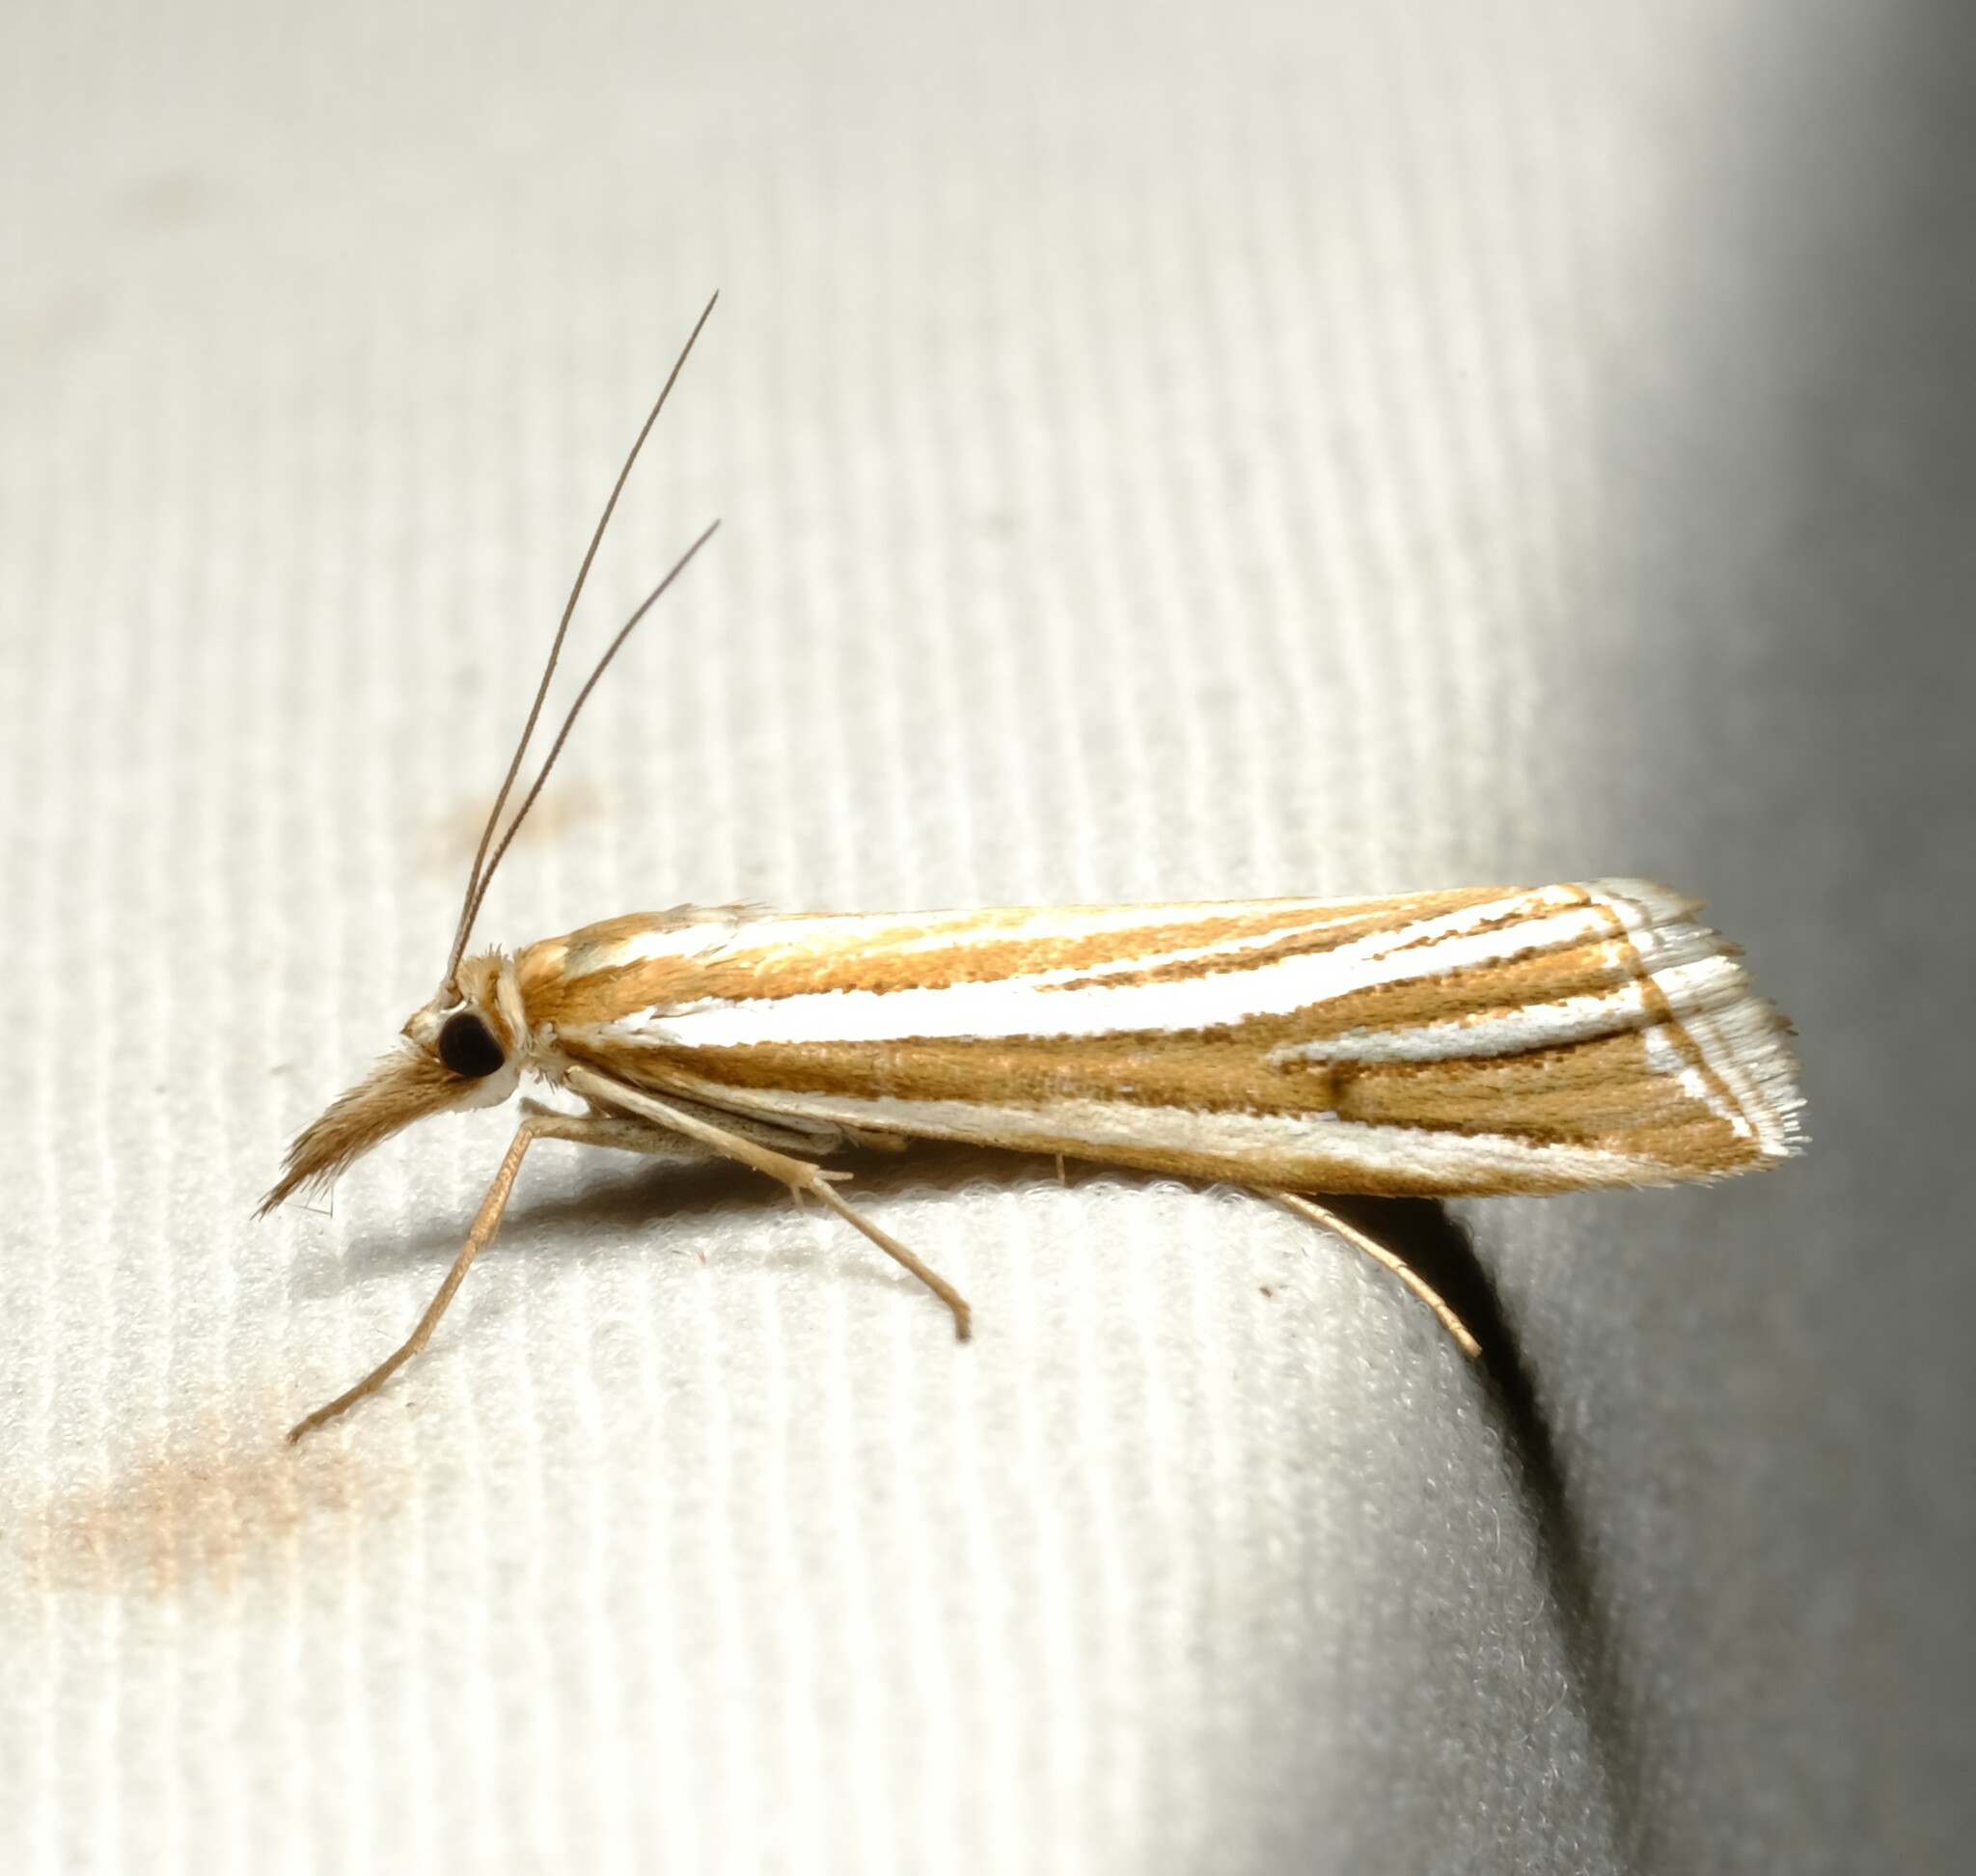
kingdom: Animalia
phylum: Arthropoda
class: Insecta
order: Lepidoptera
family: Crambidae
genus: Hednota
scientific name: Hednota grammellus
